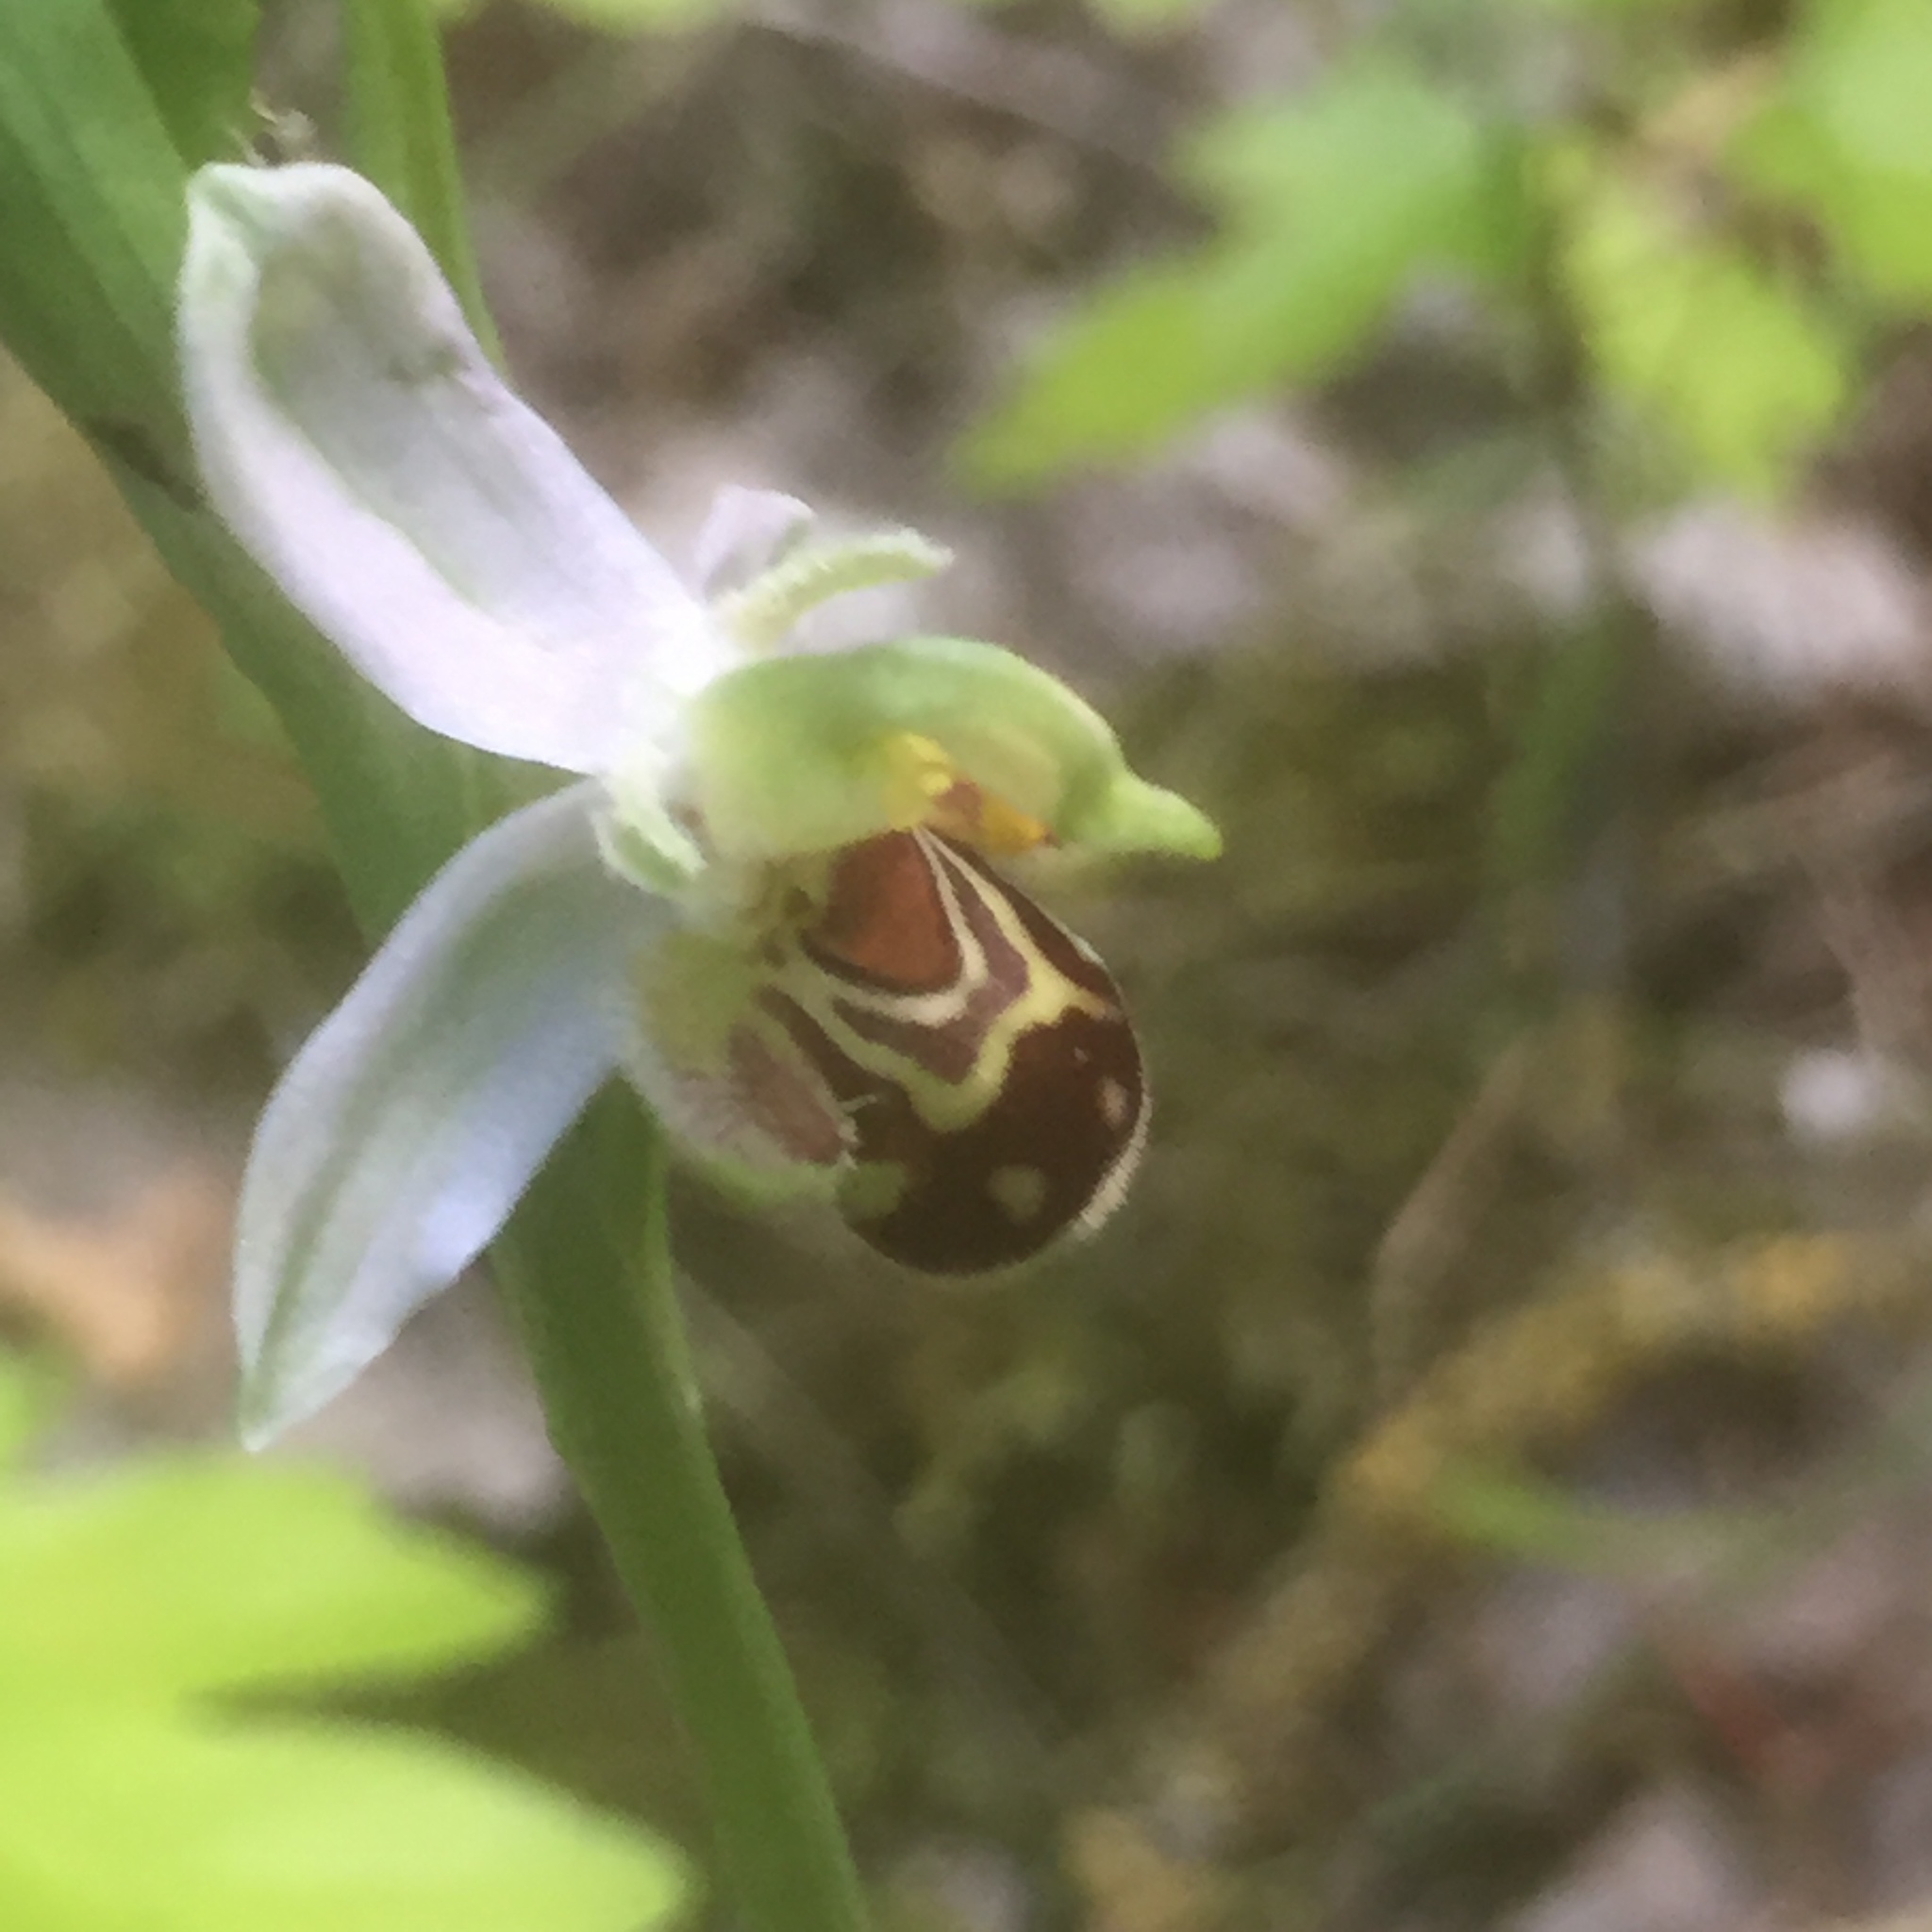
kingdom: Plantae
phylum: Tracheophyta
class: Liliopsida
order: Asparagales
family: Orchidaceae
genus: Ophrys
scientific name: Ophrys apifera
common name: Bee orchid
